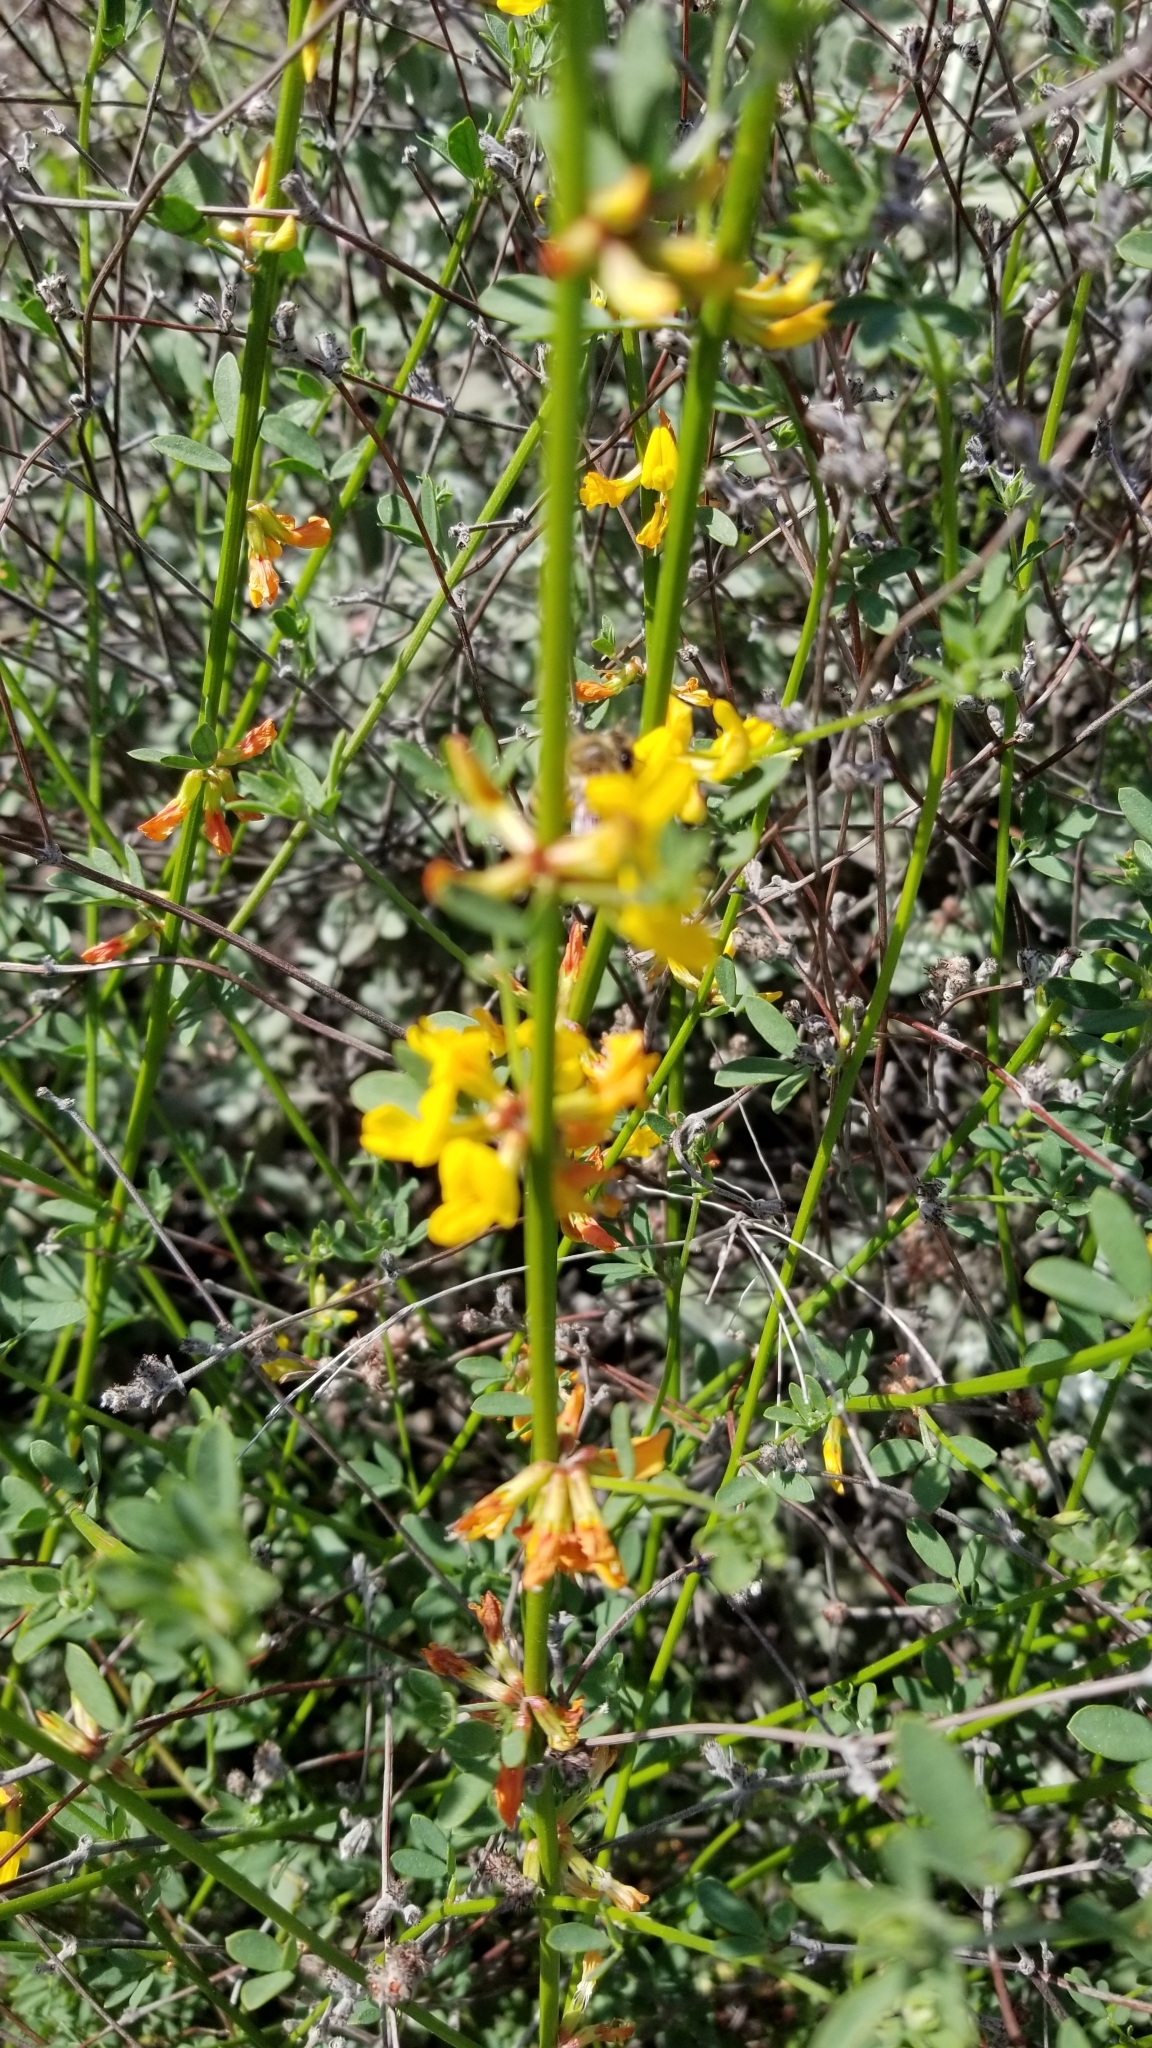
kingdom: Plantae
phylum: Tracheophyta
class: Magnoliopsida
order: Fabales
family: Fabaceae
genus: Acmispon
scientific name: Acmispon glaber
